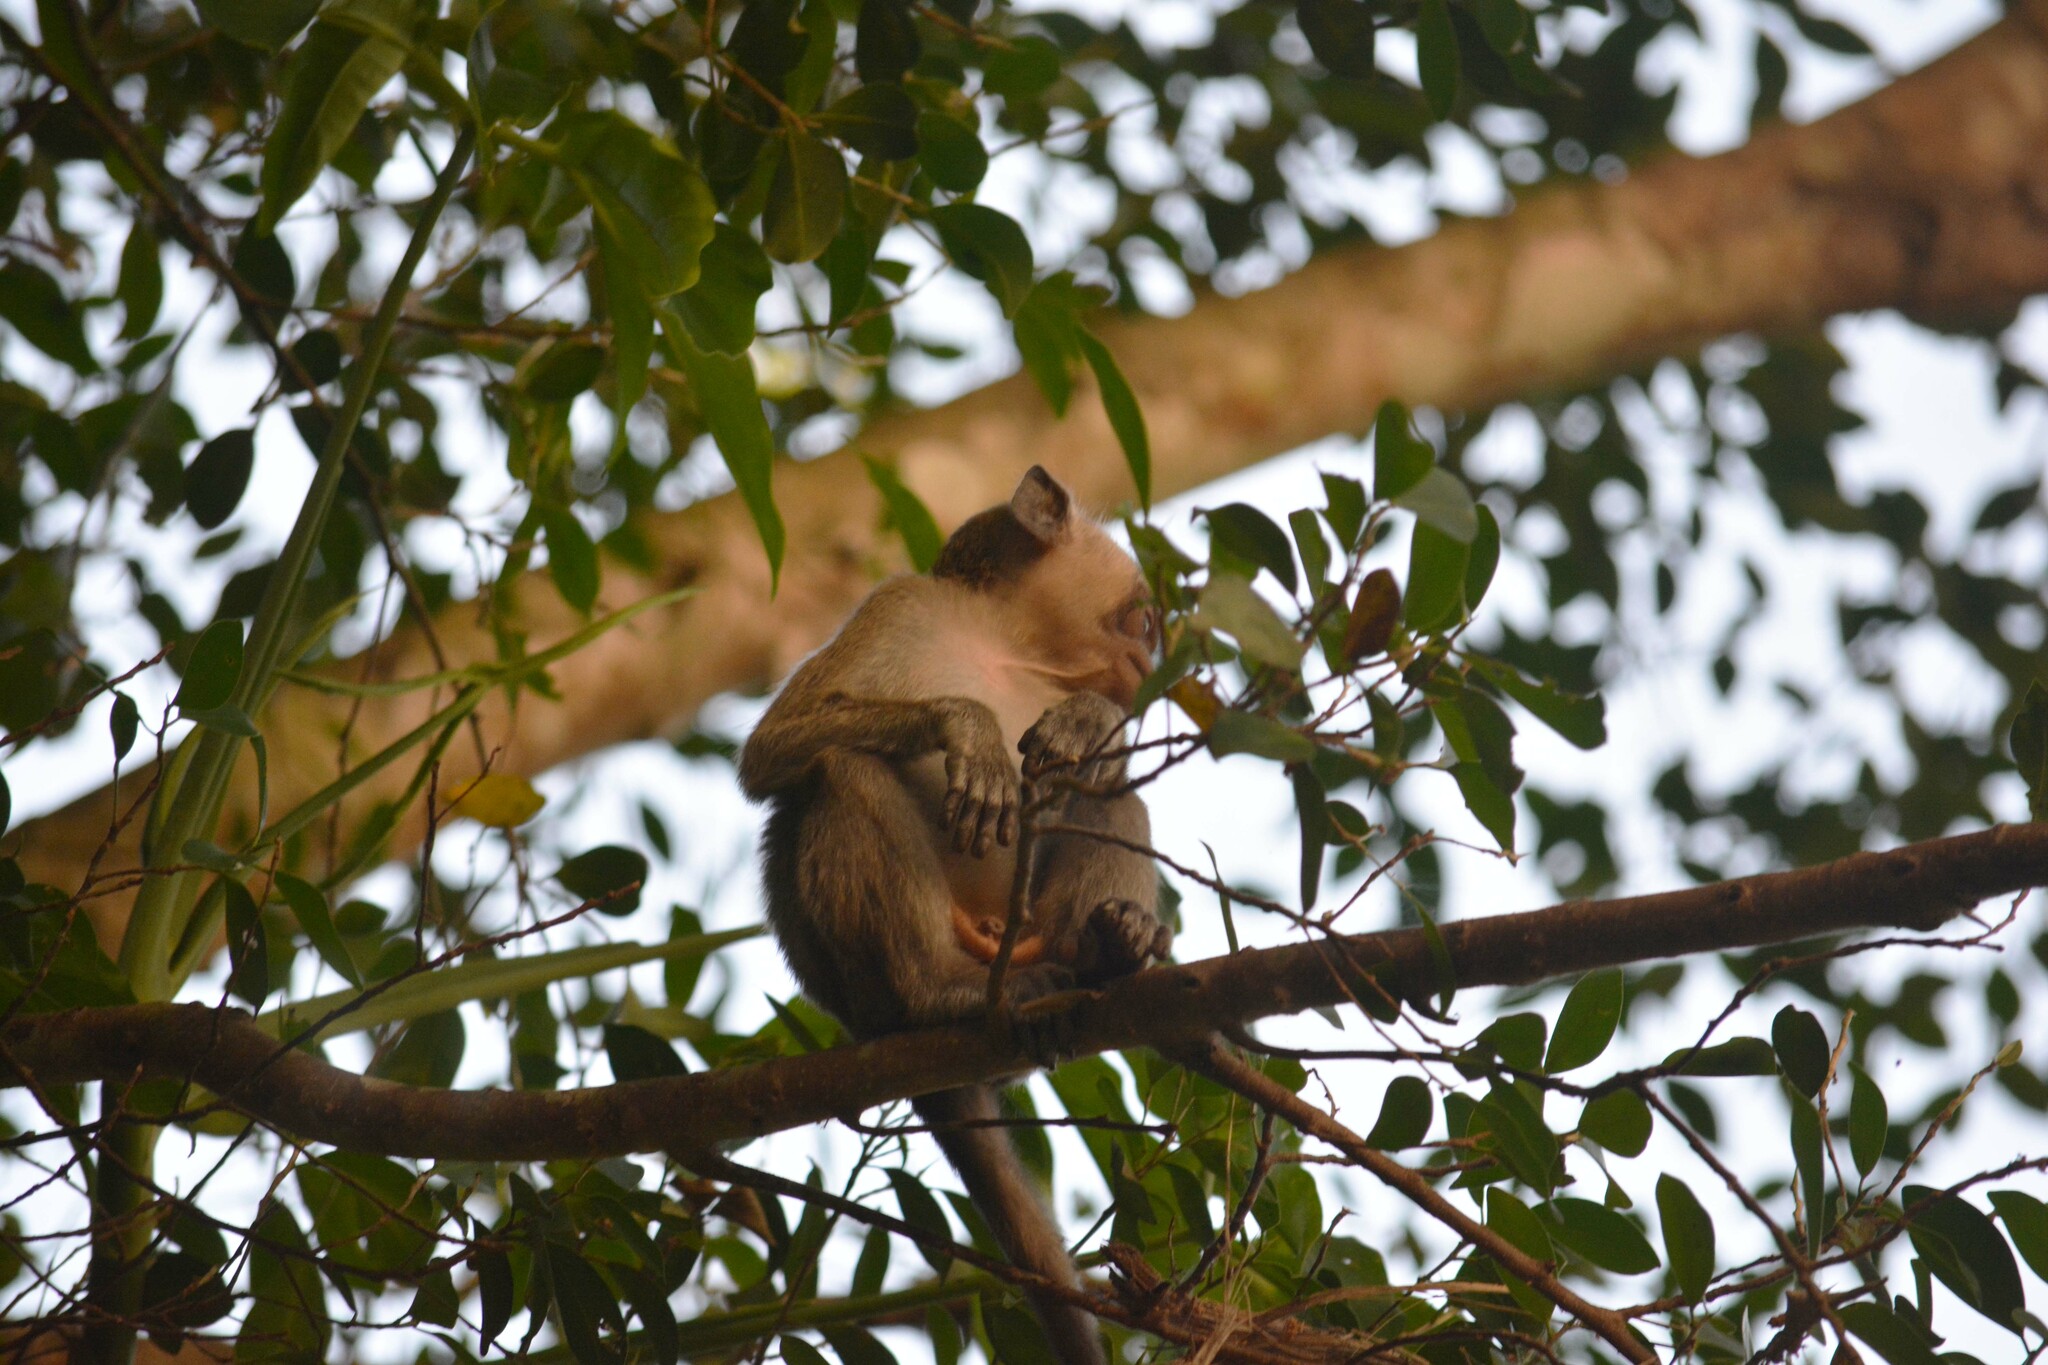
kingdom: Animalia
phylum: Chordata
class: Mammalia
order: Primates
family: Cercopithecidae
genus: Macaca
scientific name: Macaca fascicularis
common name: Crab-eating macaque
